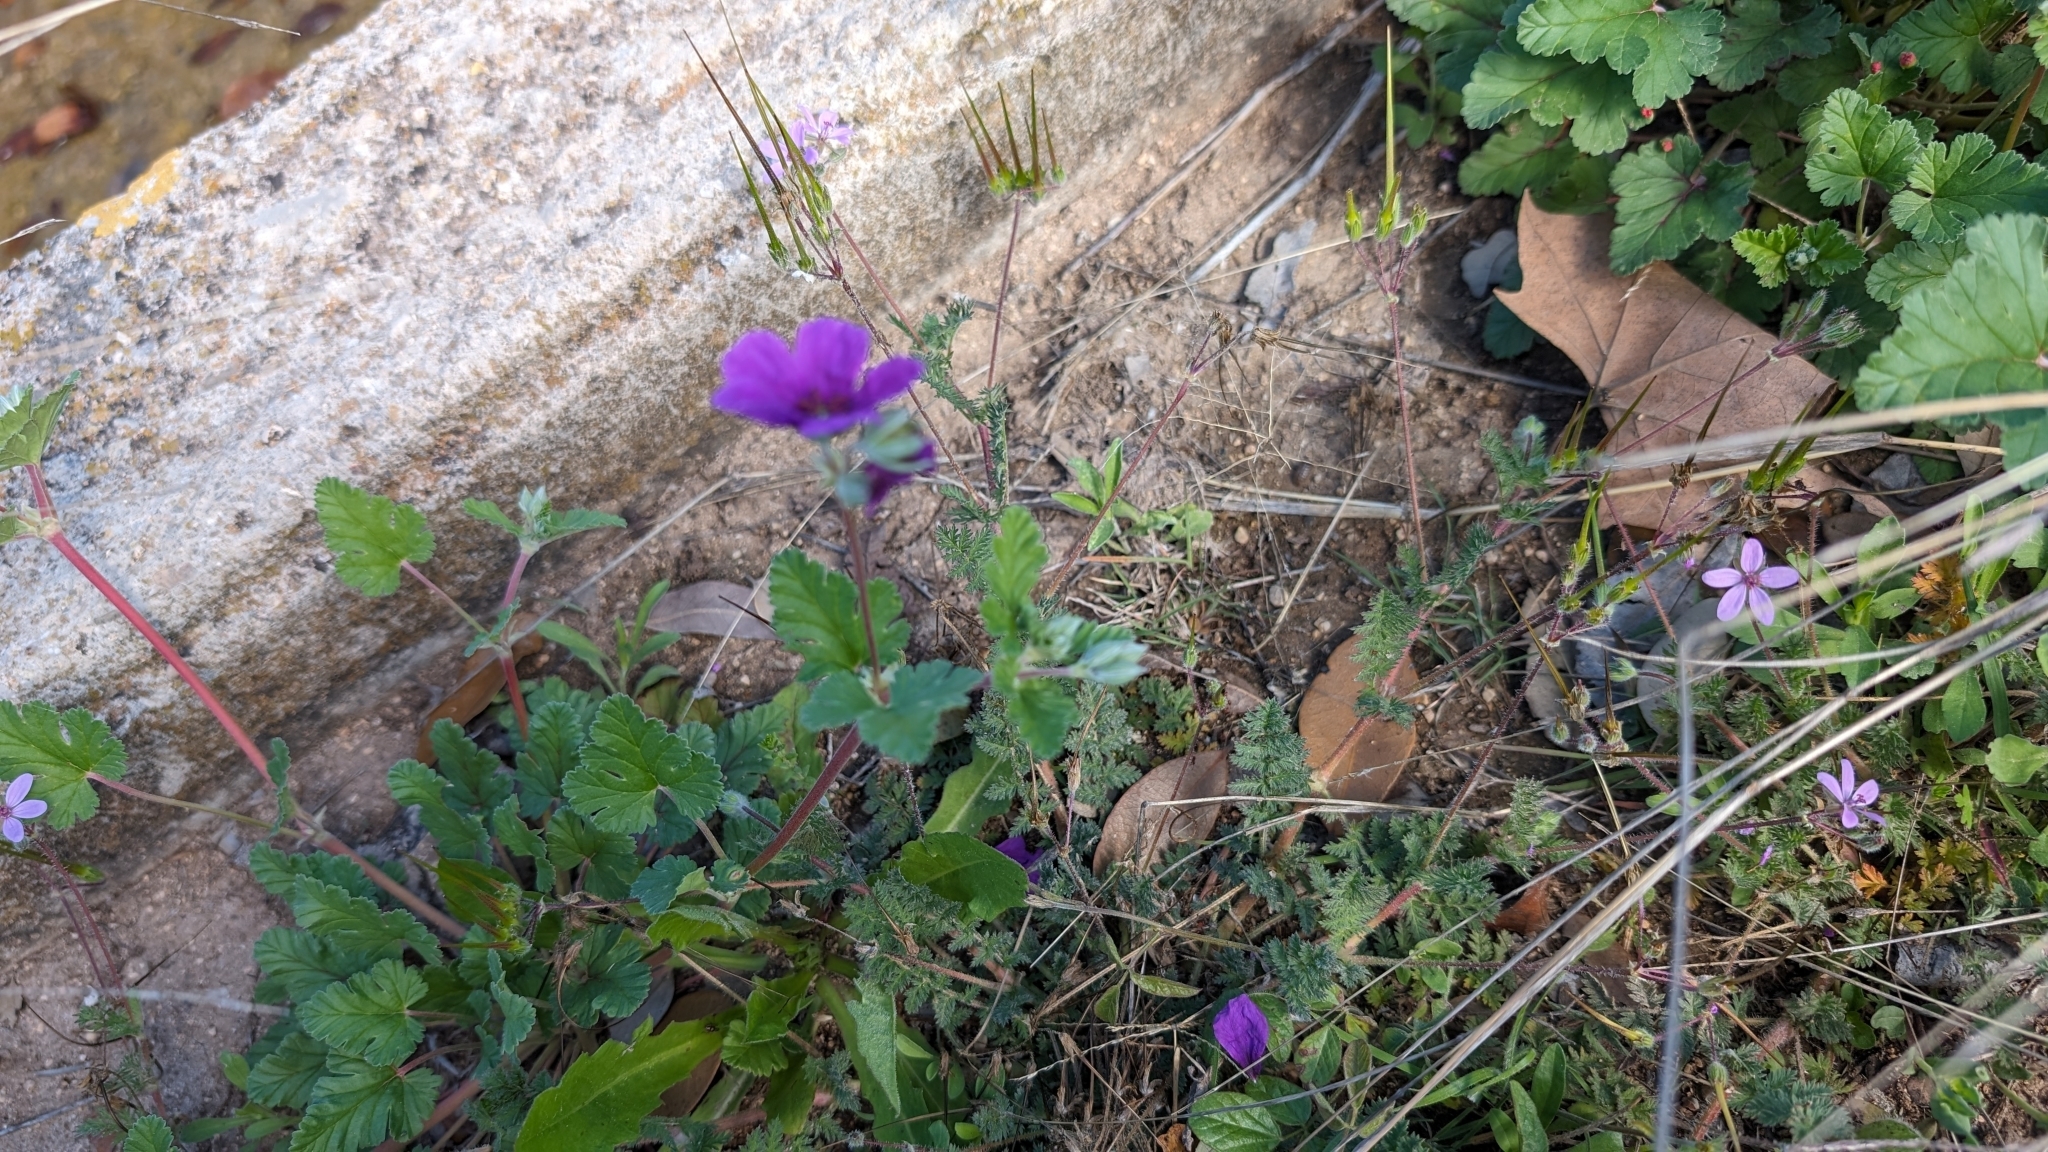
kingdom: Plantae
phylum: Tracheophyta
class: Magnoliopsida
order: Geraniales
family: Geraniaceae
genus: Erodium
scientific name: Erodium texanum
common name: Texas stork's-bill
